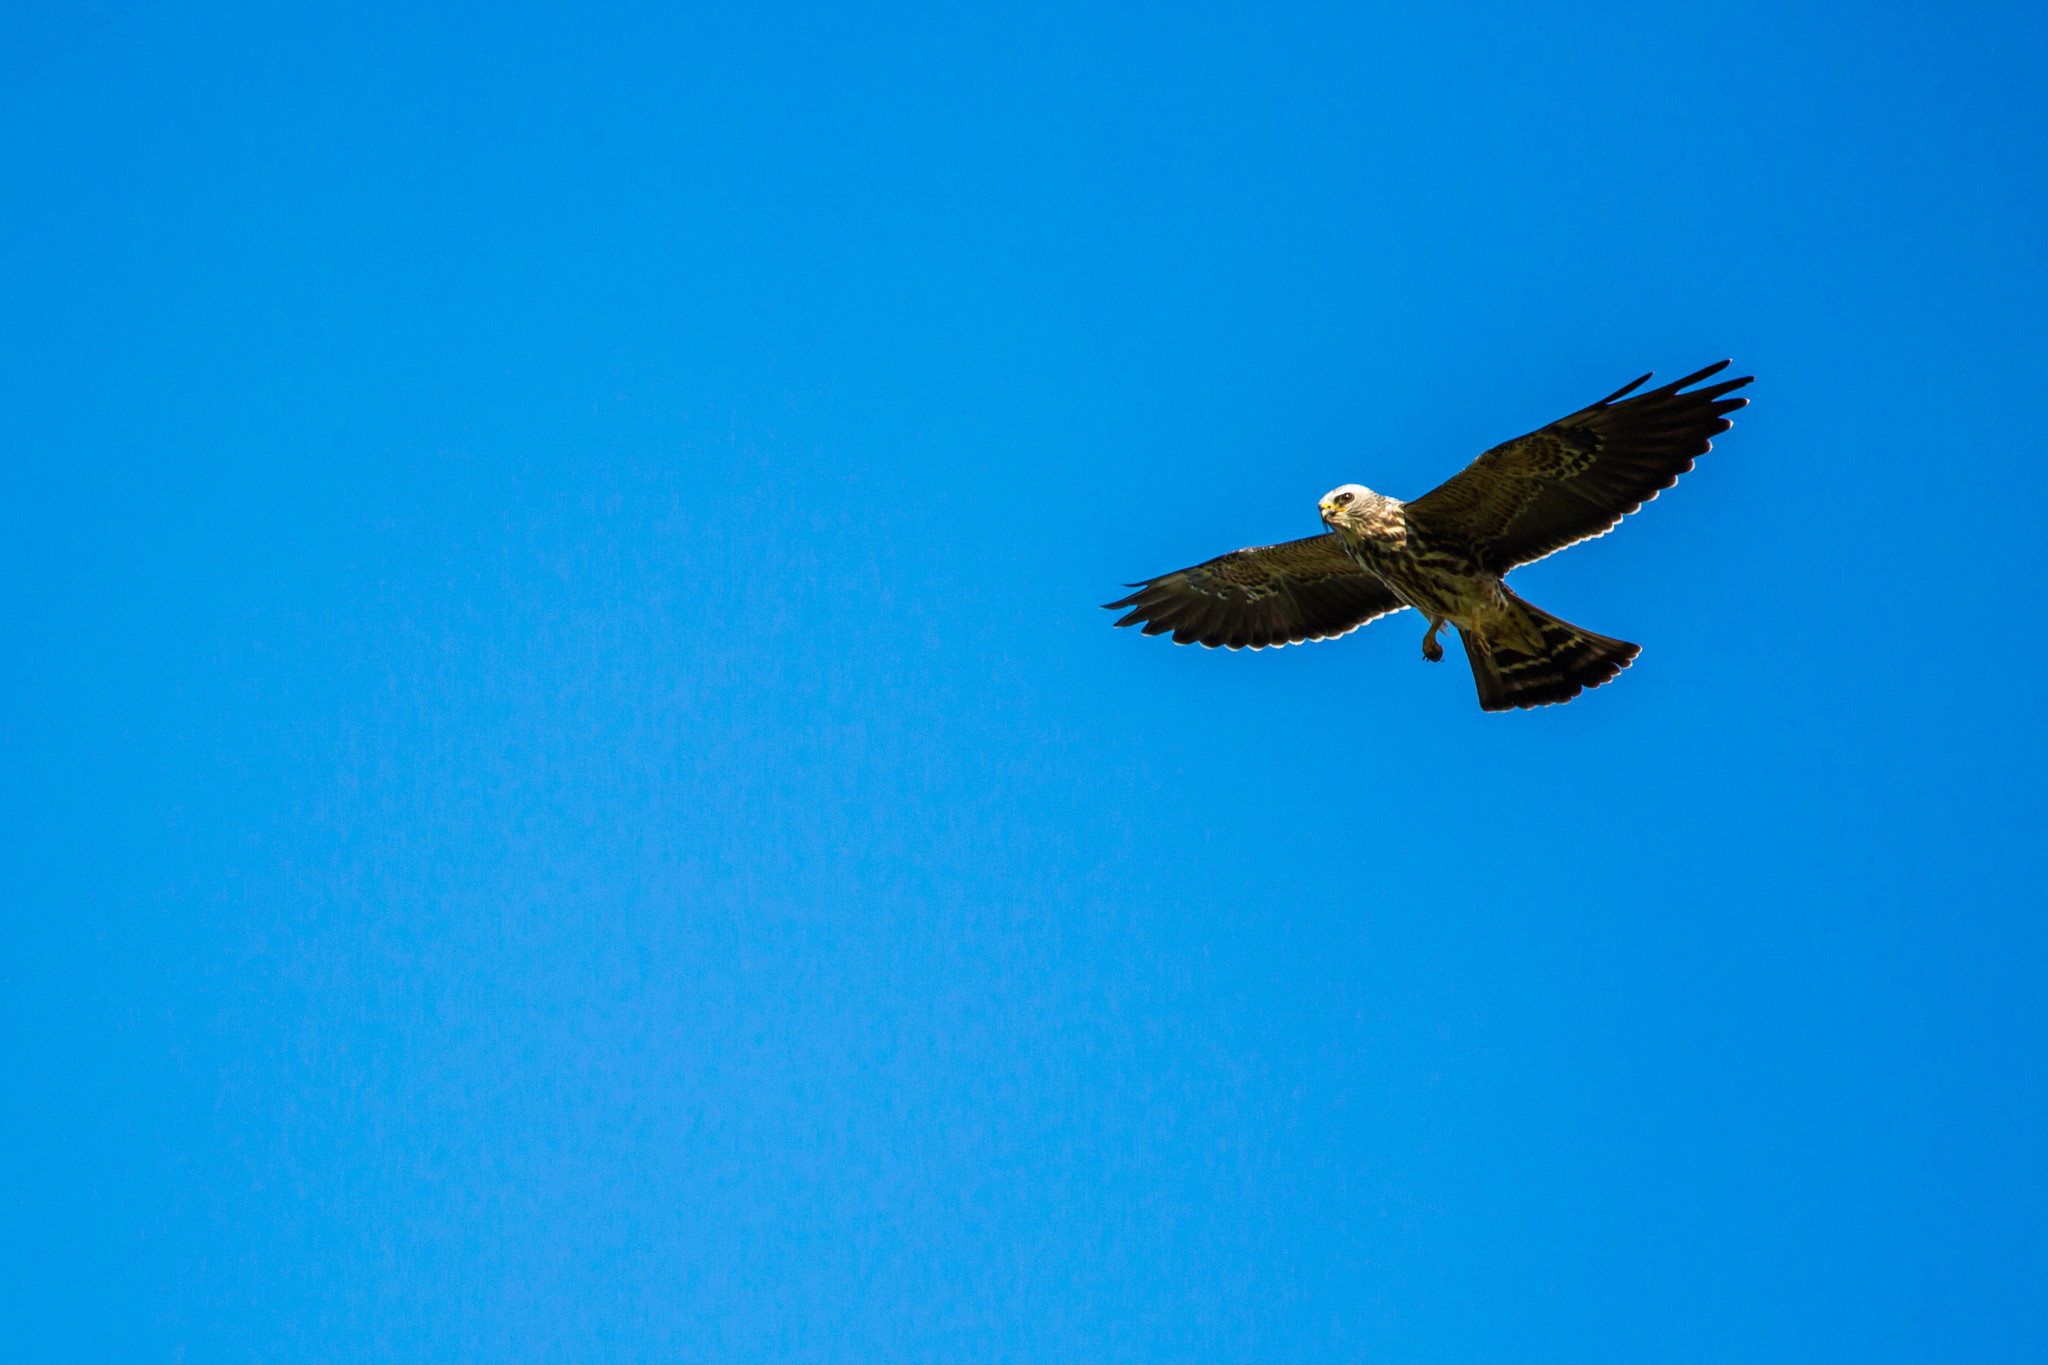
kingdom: Animalia
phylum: Chordata
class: Aves
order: Accipitriformes
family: Accipitridae
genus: Ictinia
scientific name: Ictinia mississippiensis
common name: Mississippi kite
